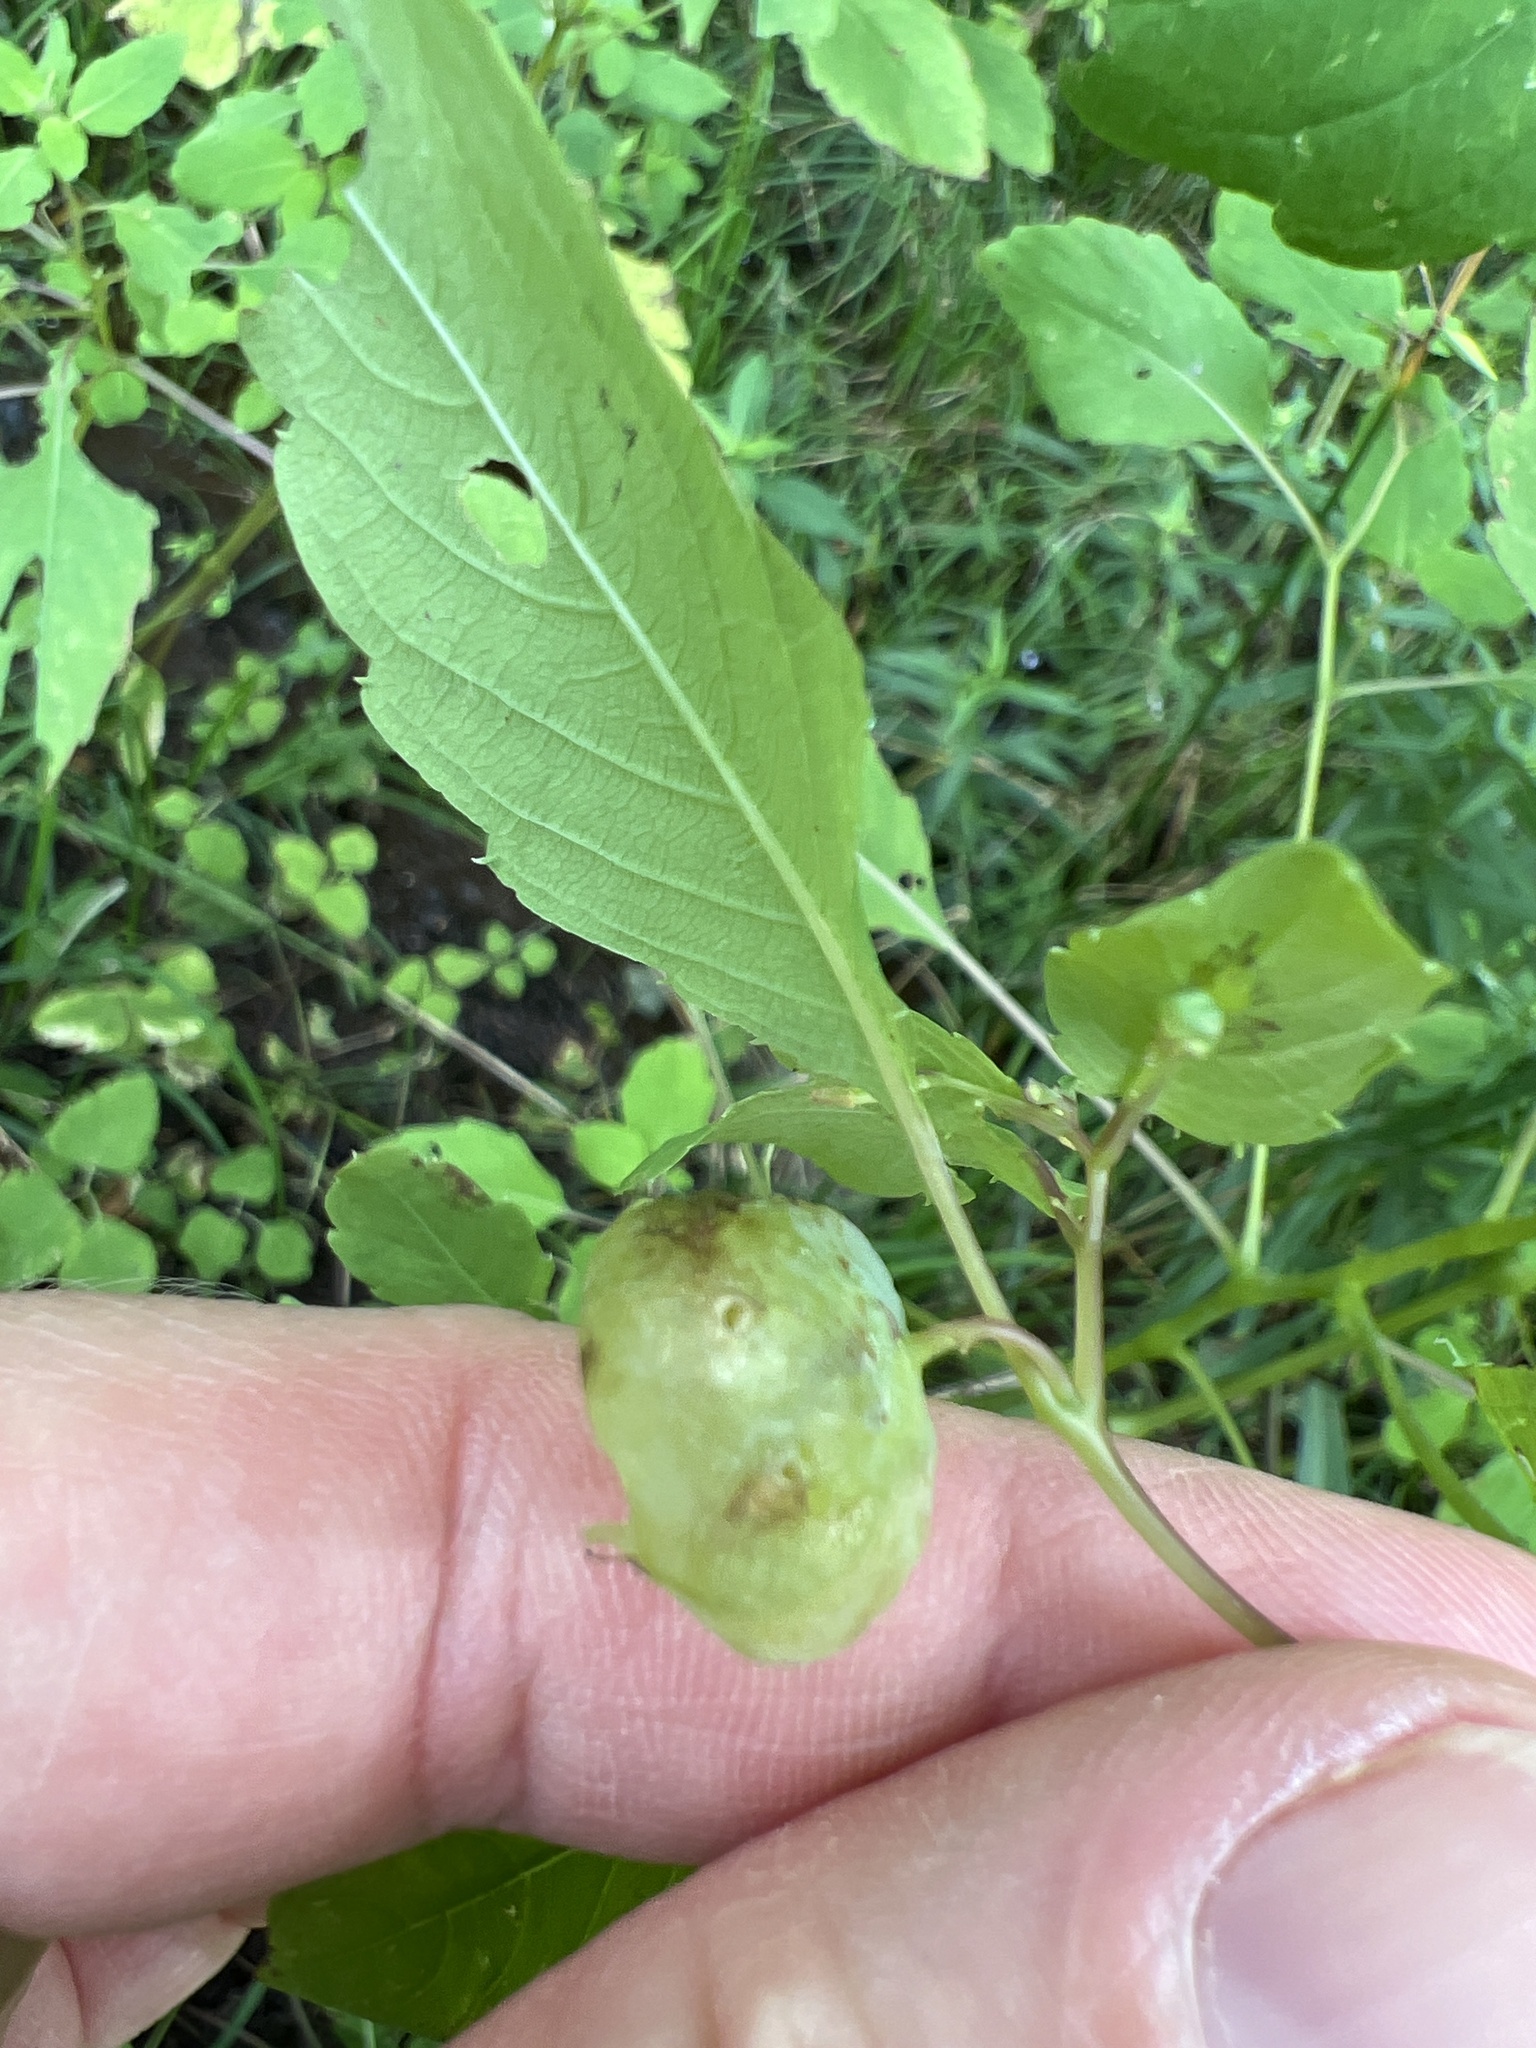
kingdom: Animalia
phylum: Arthropoda
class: Insecta
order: Diptera
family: Cecidomyiidae
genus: Schizomyia
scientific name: Schizomyia impatientis
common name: Jewelweed gall midge
